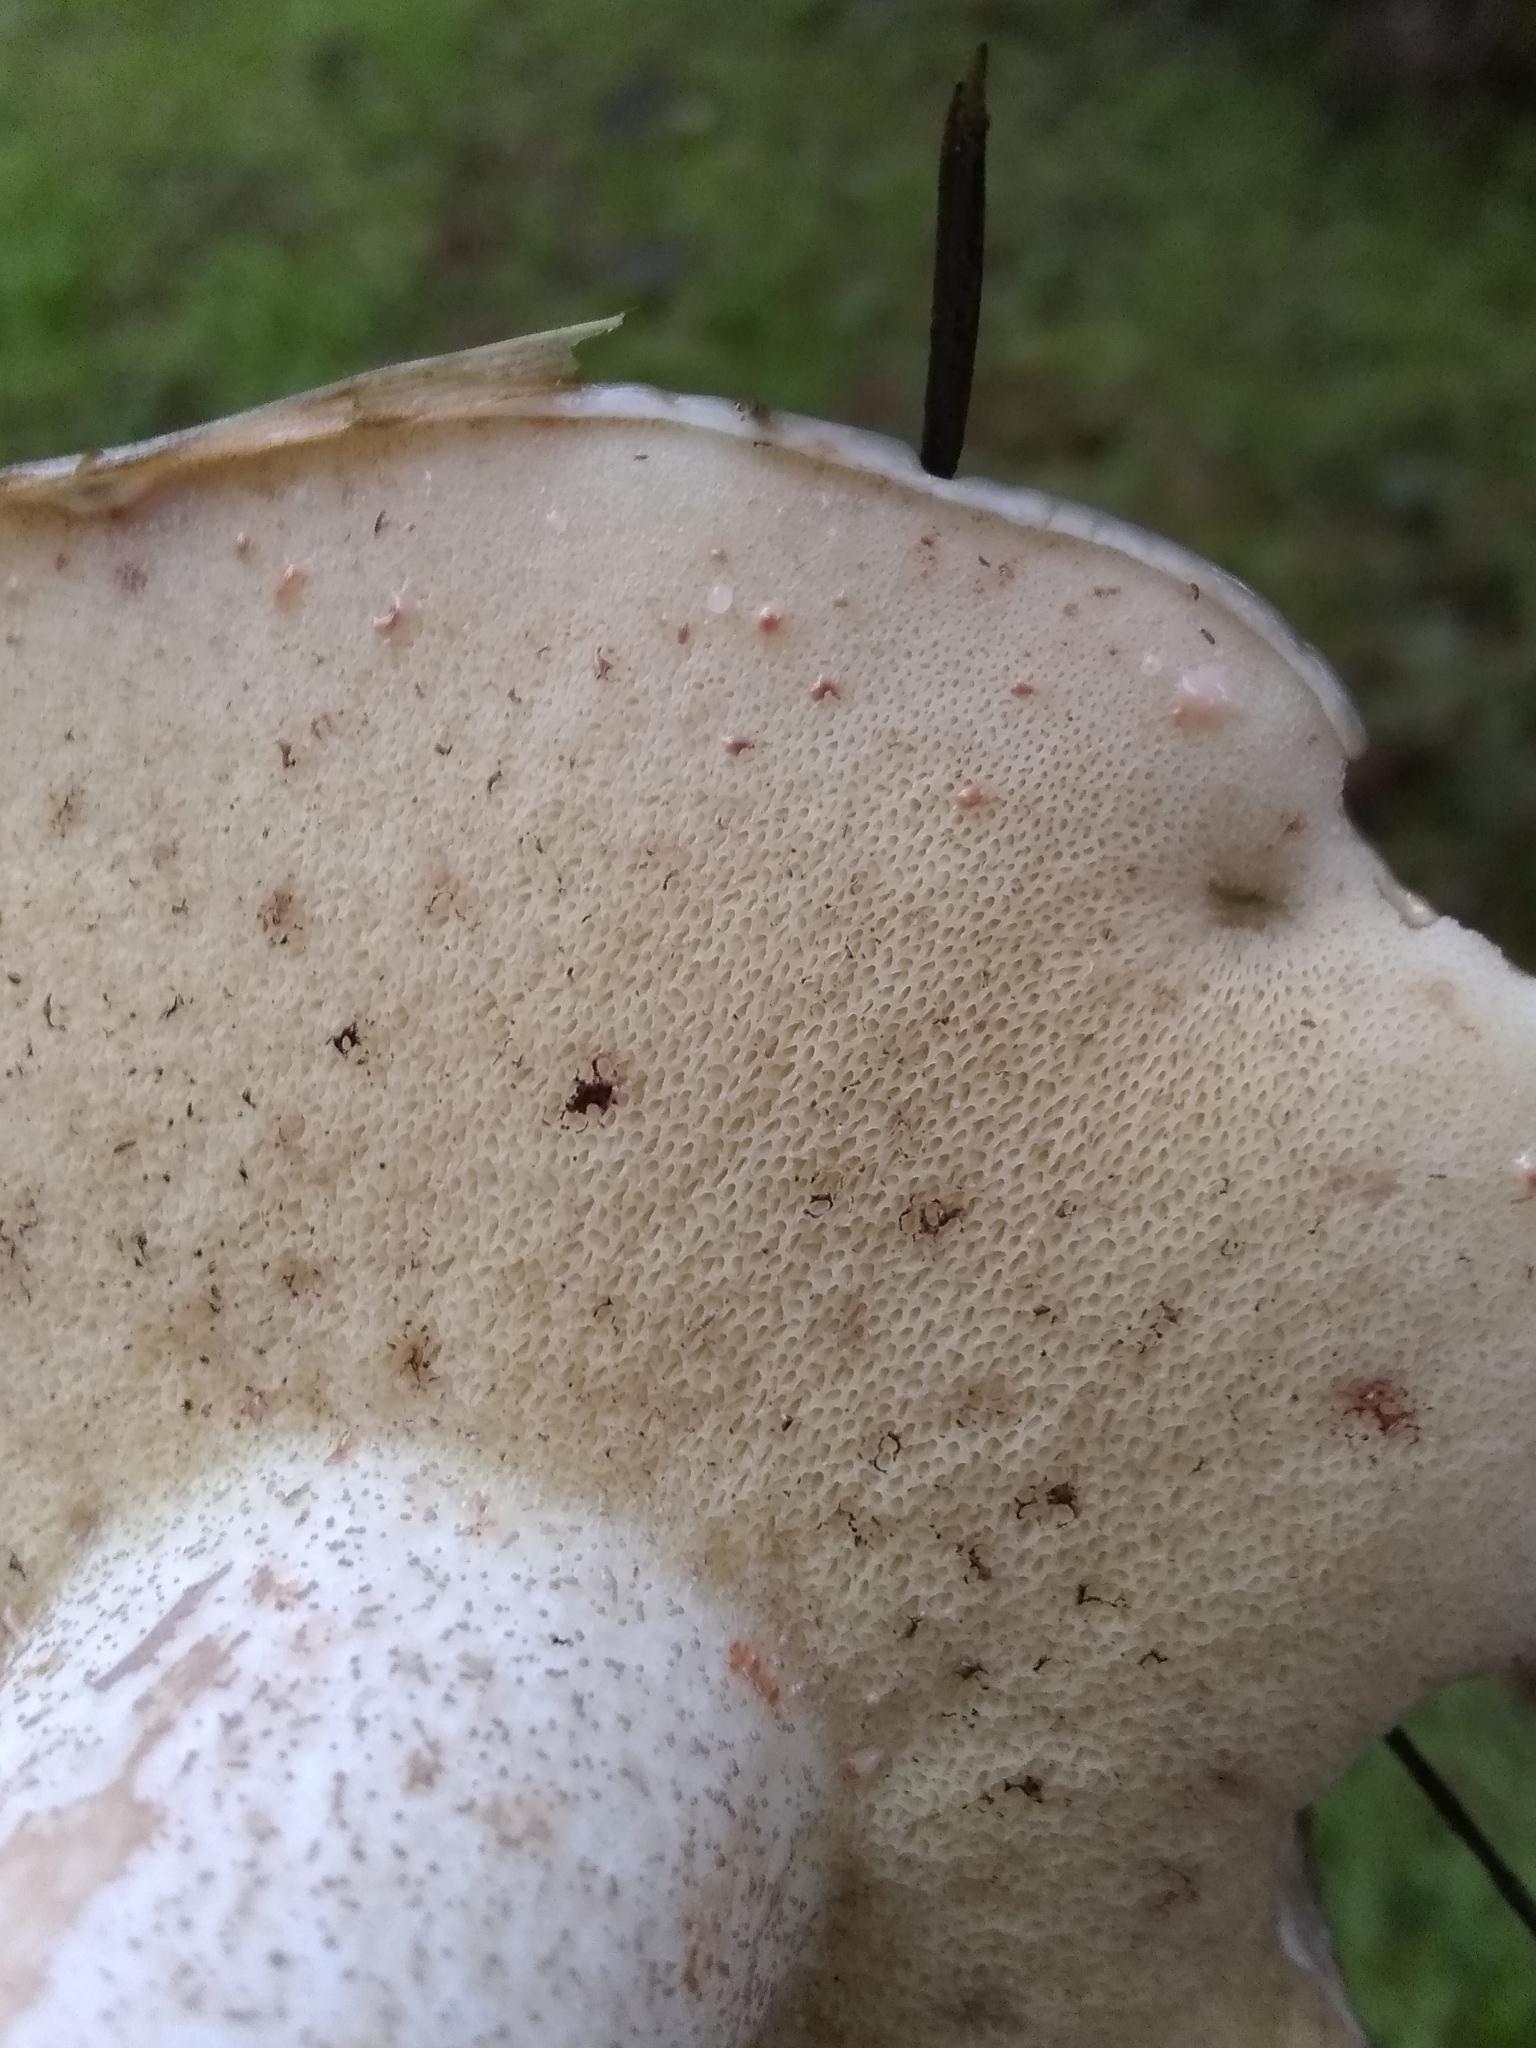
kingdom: Fungi
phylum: Basidiomycota
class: Agaricomycetes
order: Boletales
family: Suillaceae
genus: Suillus
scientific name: Suillus pungens
